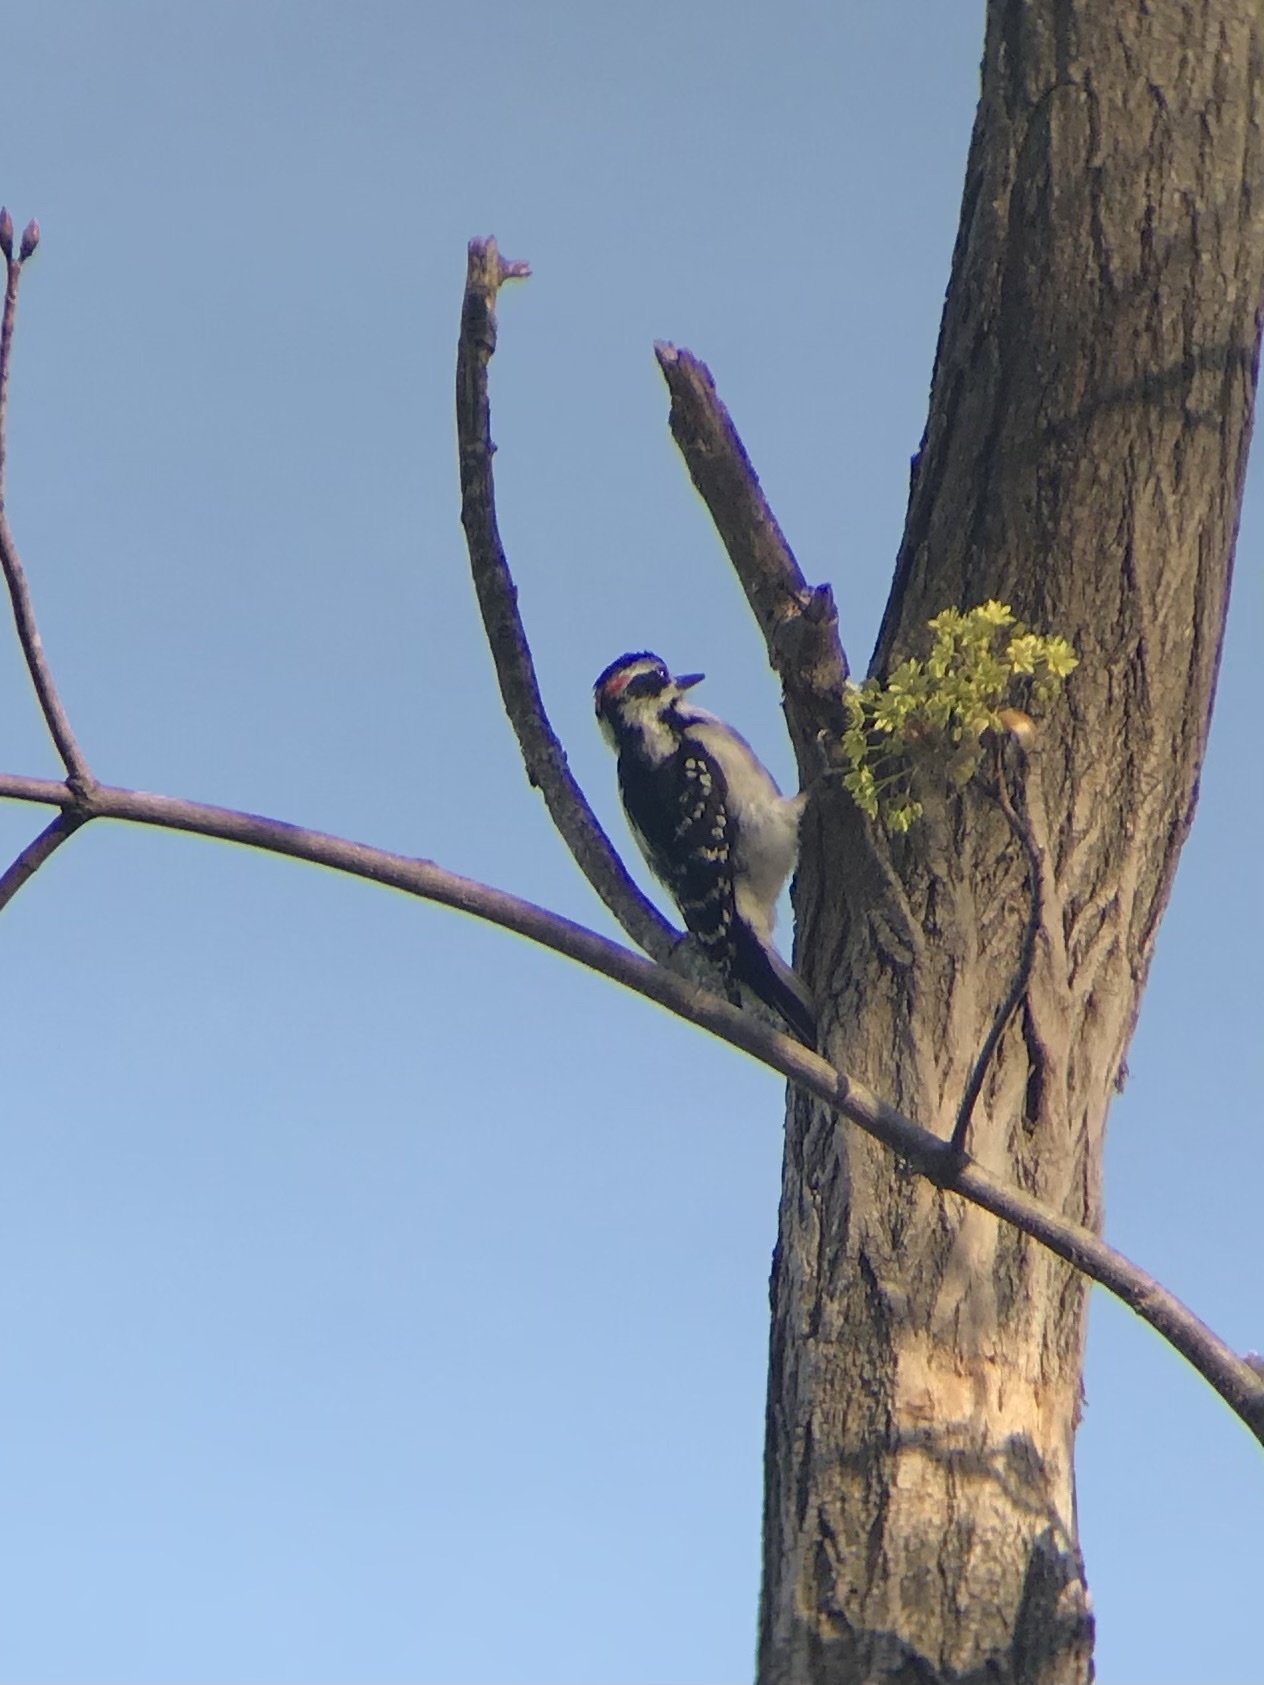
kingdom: Animalia
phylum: Chordata
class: Aves
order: Piciformes
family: Picidae
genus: Leuconotopicus
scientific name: Leuconotopicus villosus
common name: Hairy woodpecker
